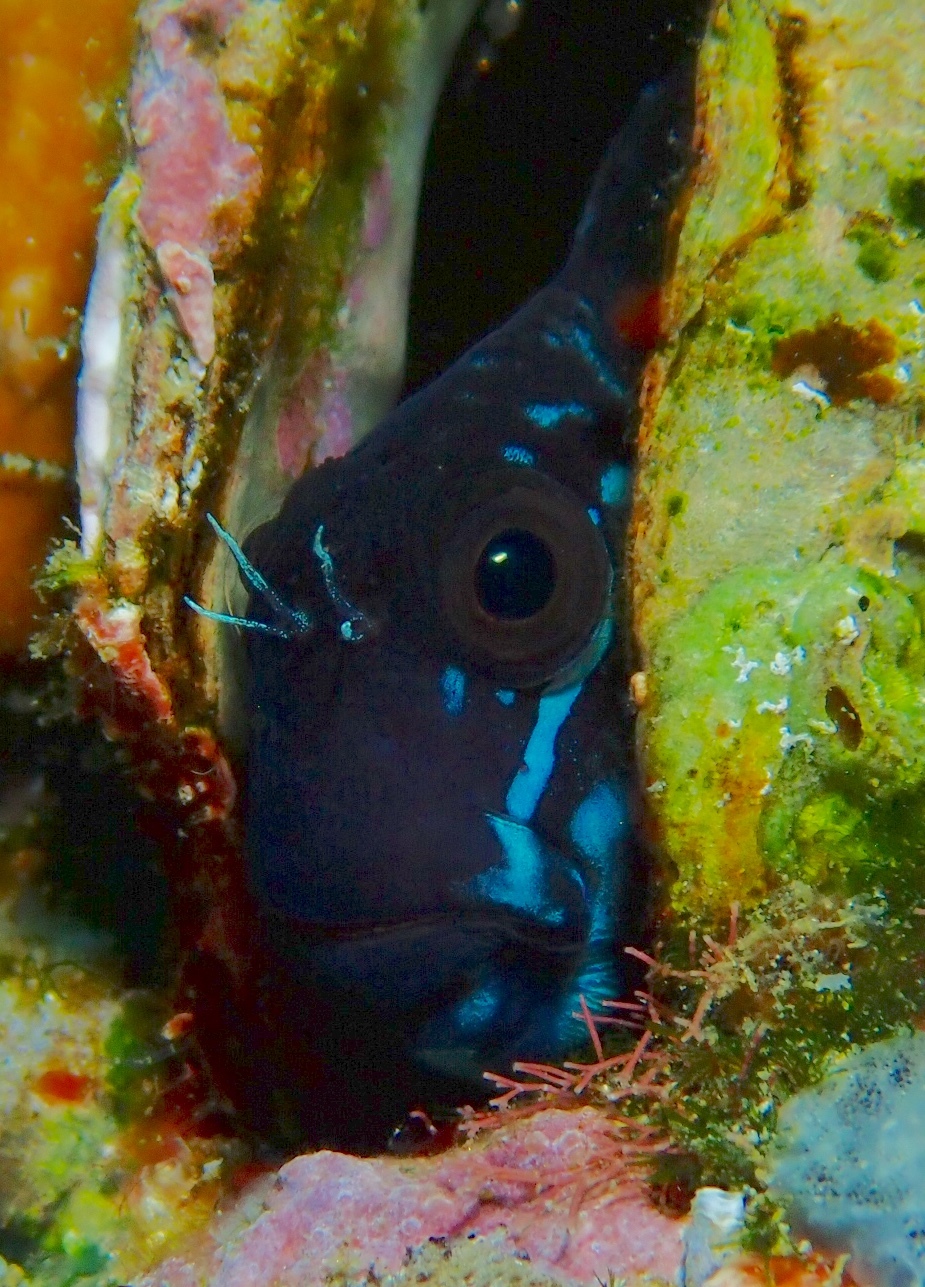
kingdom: Animalia
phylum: Chordata
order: Perciformes
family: Blenniidae
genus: Ecsenius
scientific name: Ecsenius namiyei
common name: Black comb-tooth
